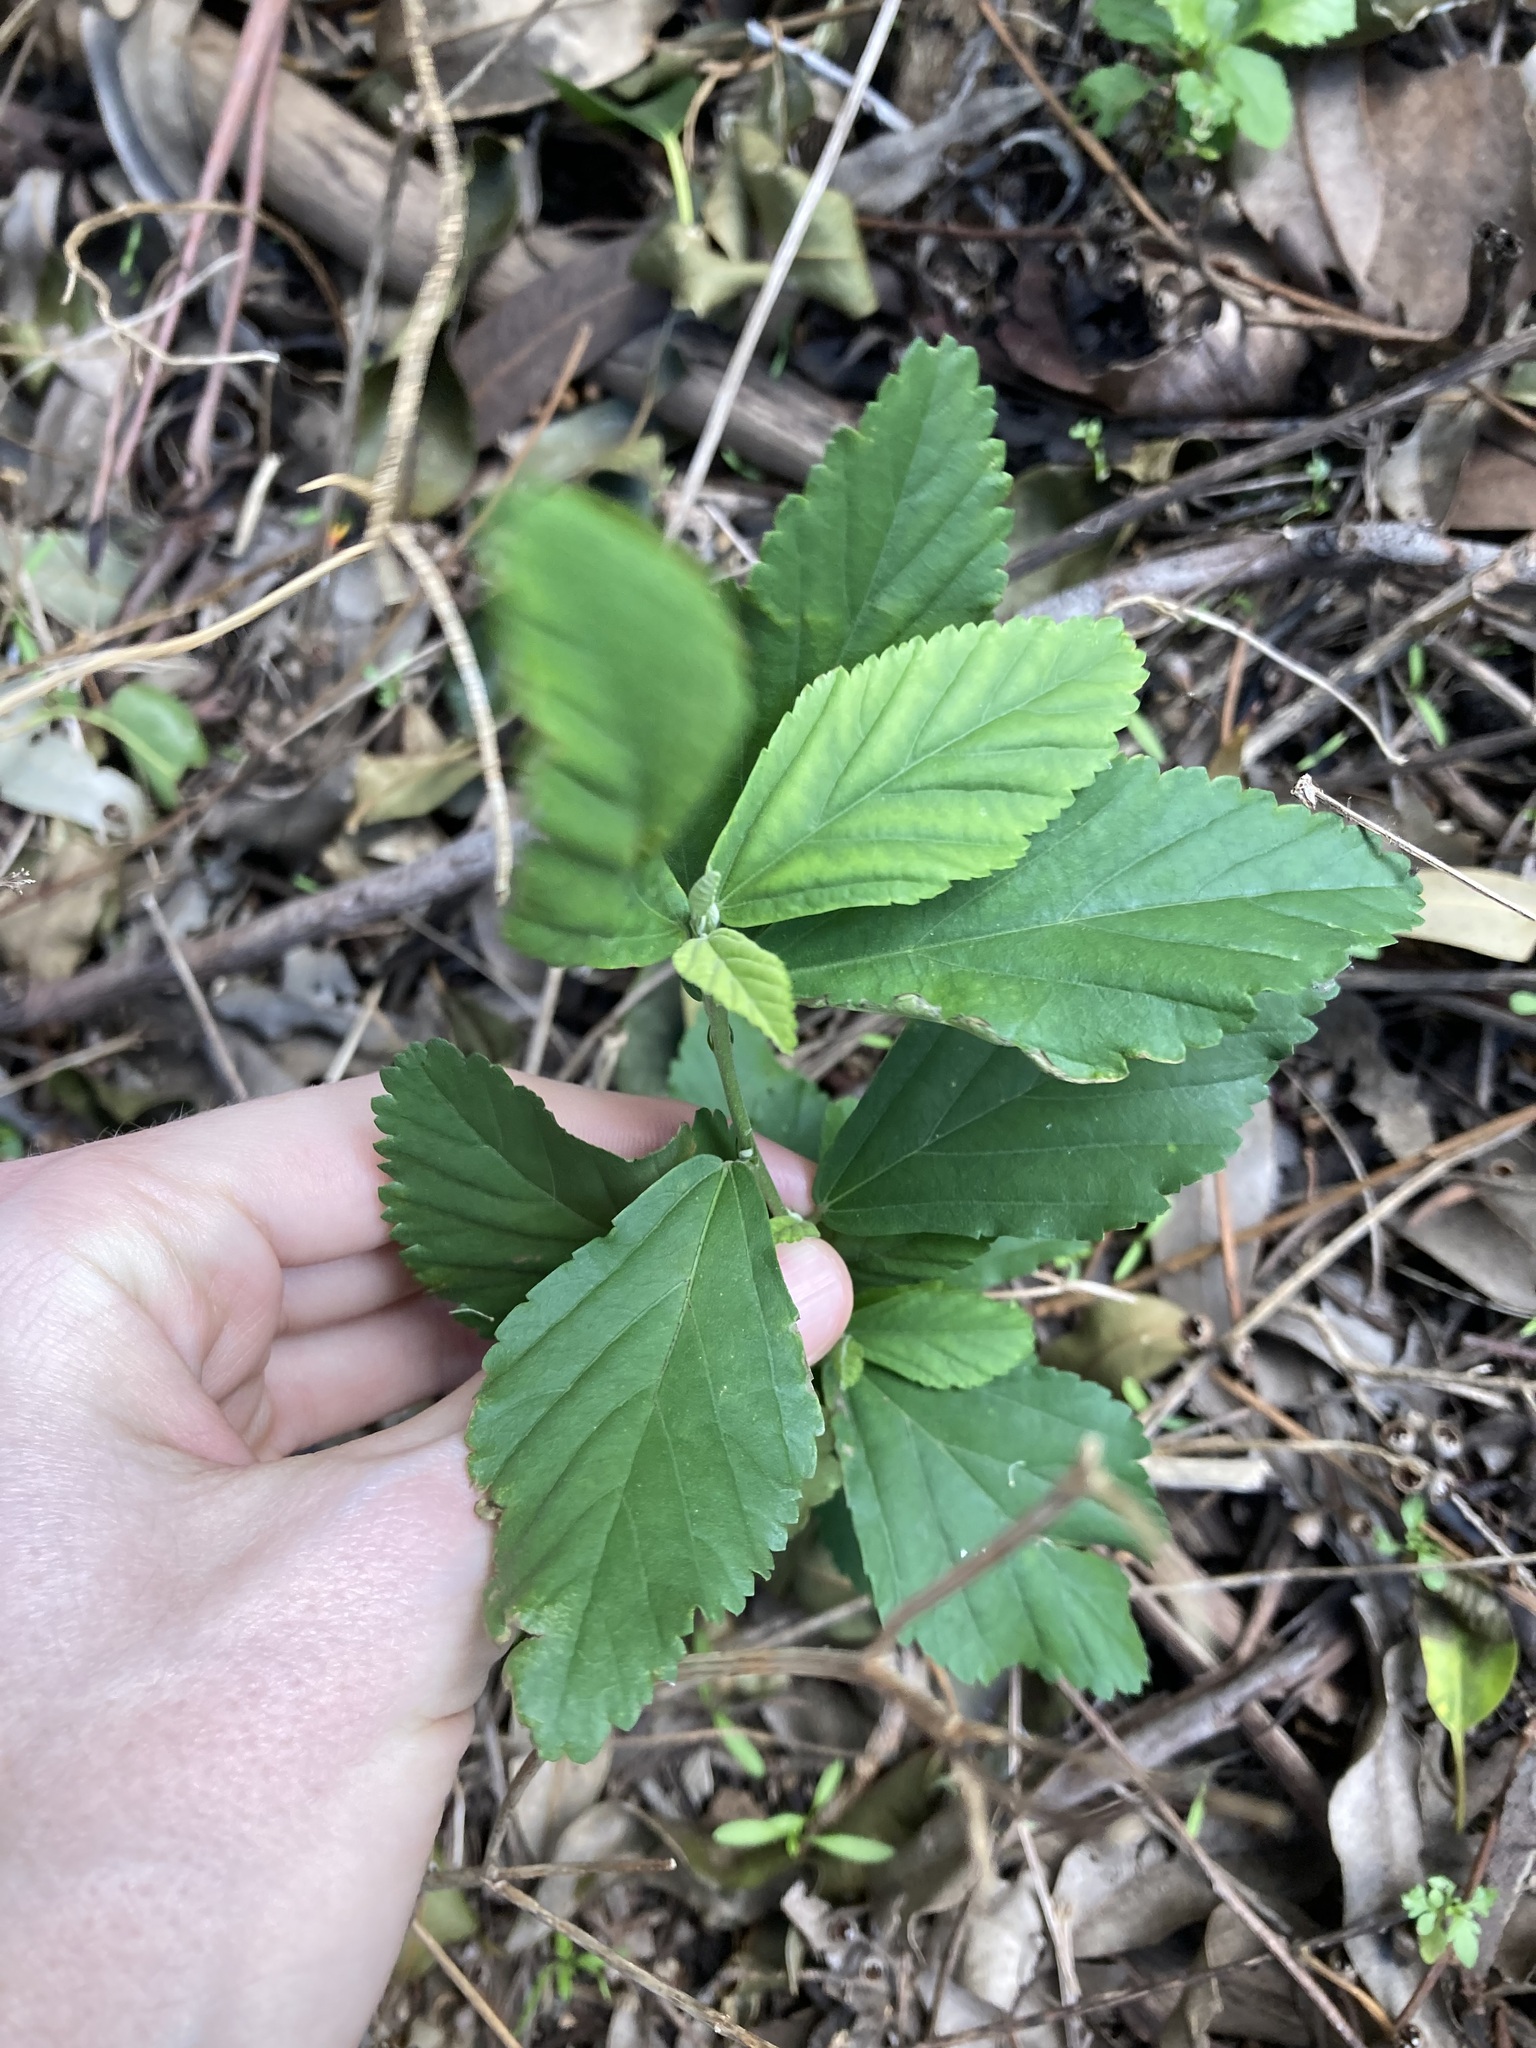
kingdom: Plantae
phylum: Tracheophyta
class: Magnoliopsida
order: Malvales
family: Malvaceae
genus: Sida
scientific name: Sida rhombifolia
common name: Queensland-hemp
